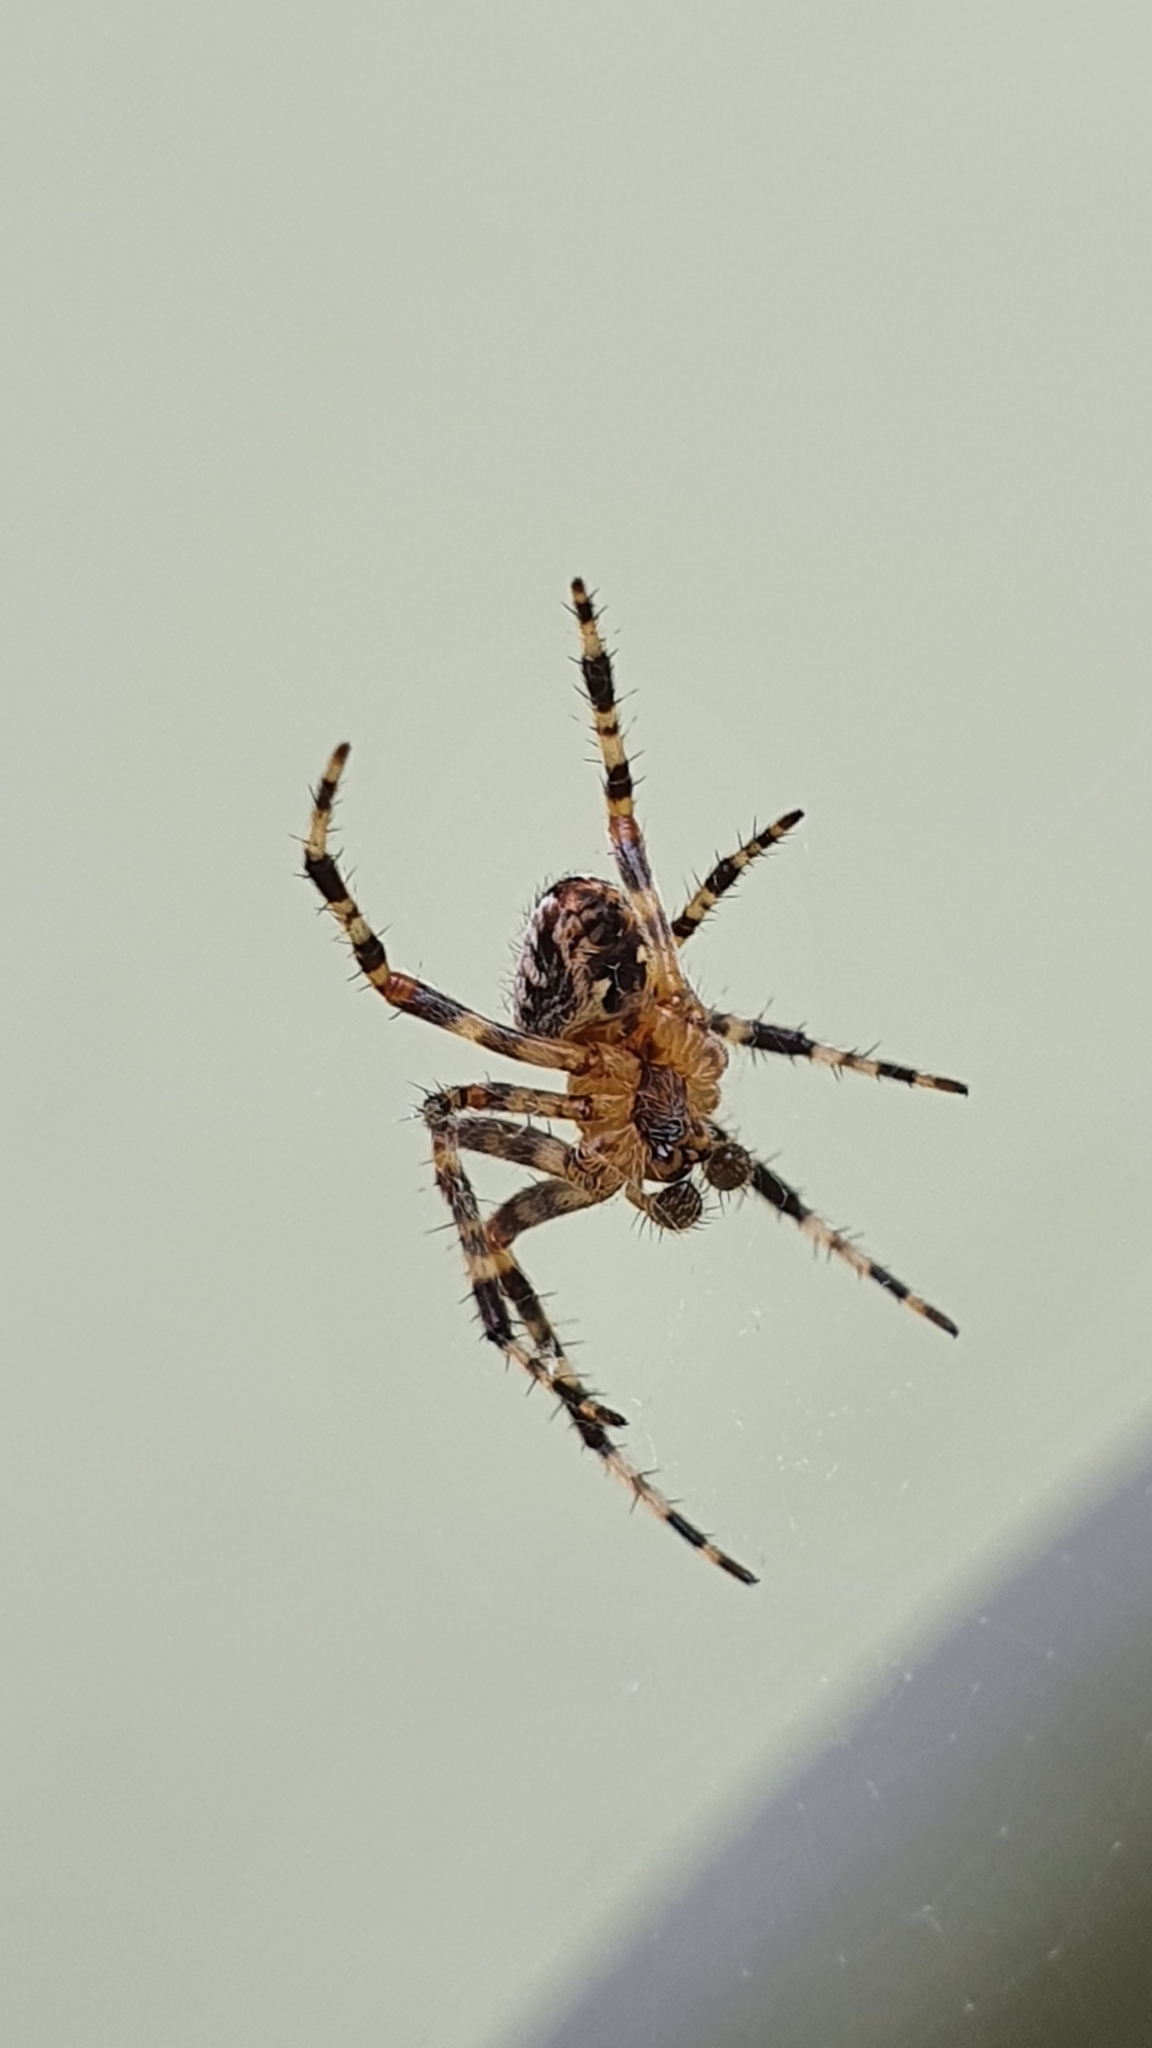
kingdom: Animalia
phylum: Arthropoda
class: Arachnida
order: Araneae
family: Araneidae
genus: Araneus
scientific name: Araneus diadematus
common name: Cross orbweaver
